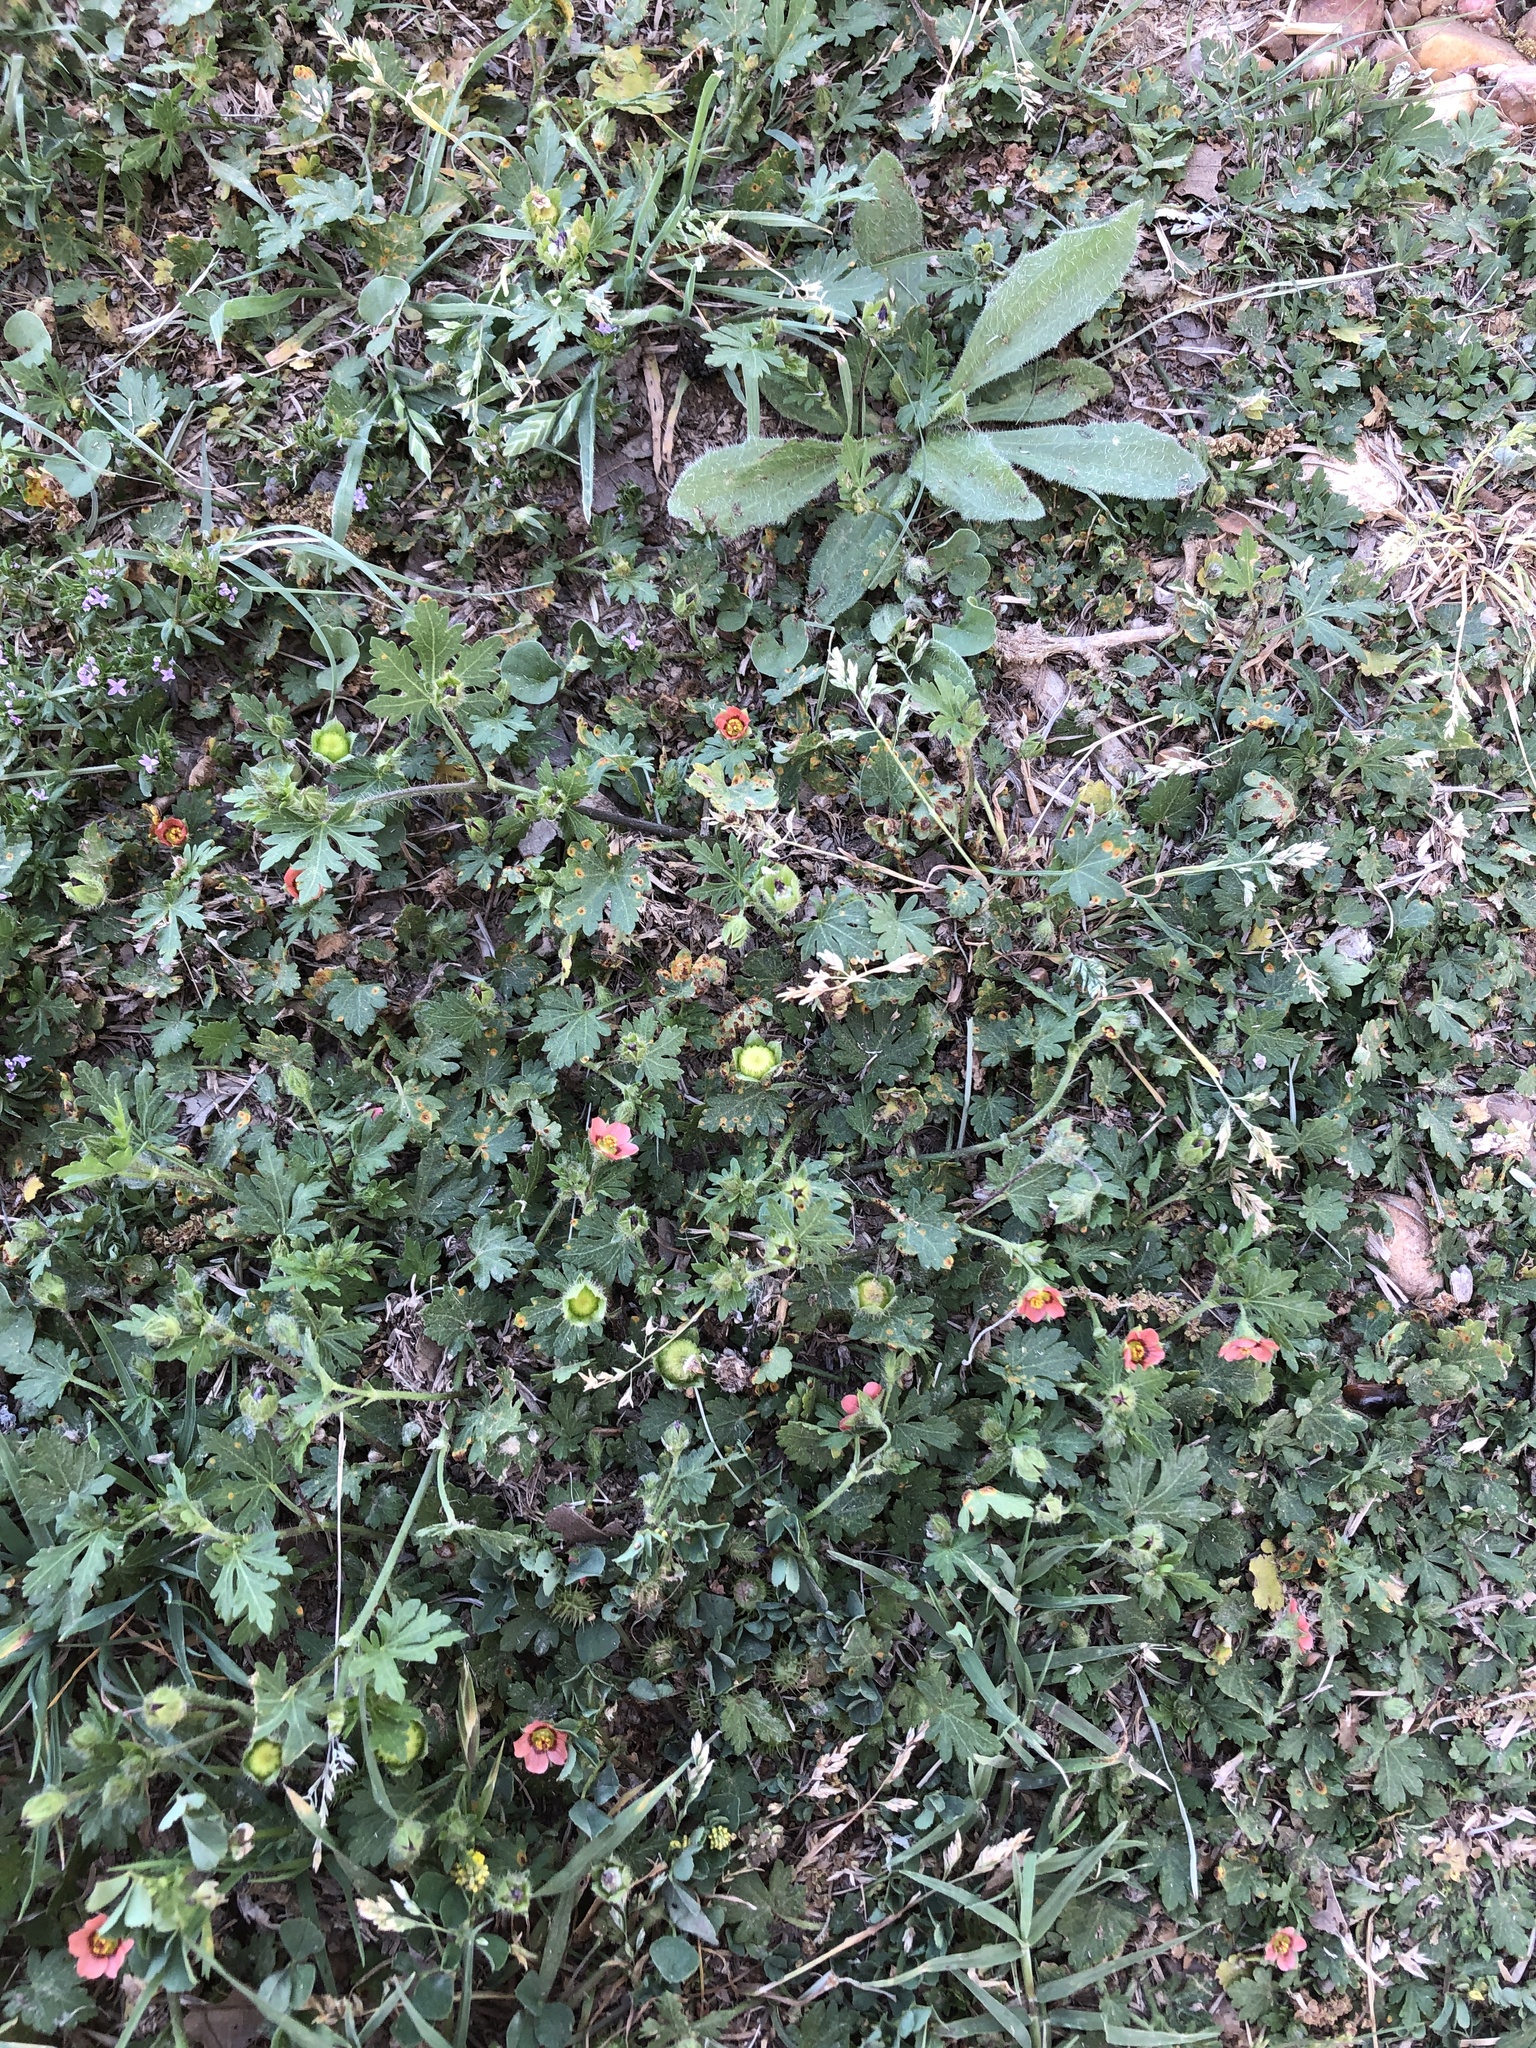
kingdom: Fungi
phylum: Basidiomycota
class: Pucciniomycetes
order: Pucciniales
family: Pucciniaceae
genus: Puccinia
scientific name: Puccinia modiolae
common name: Rust of bristlemallow
